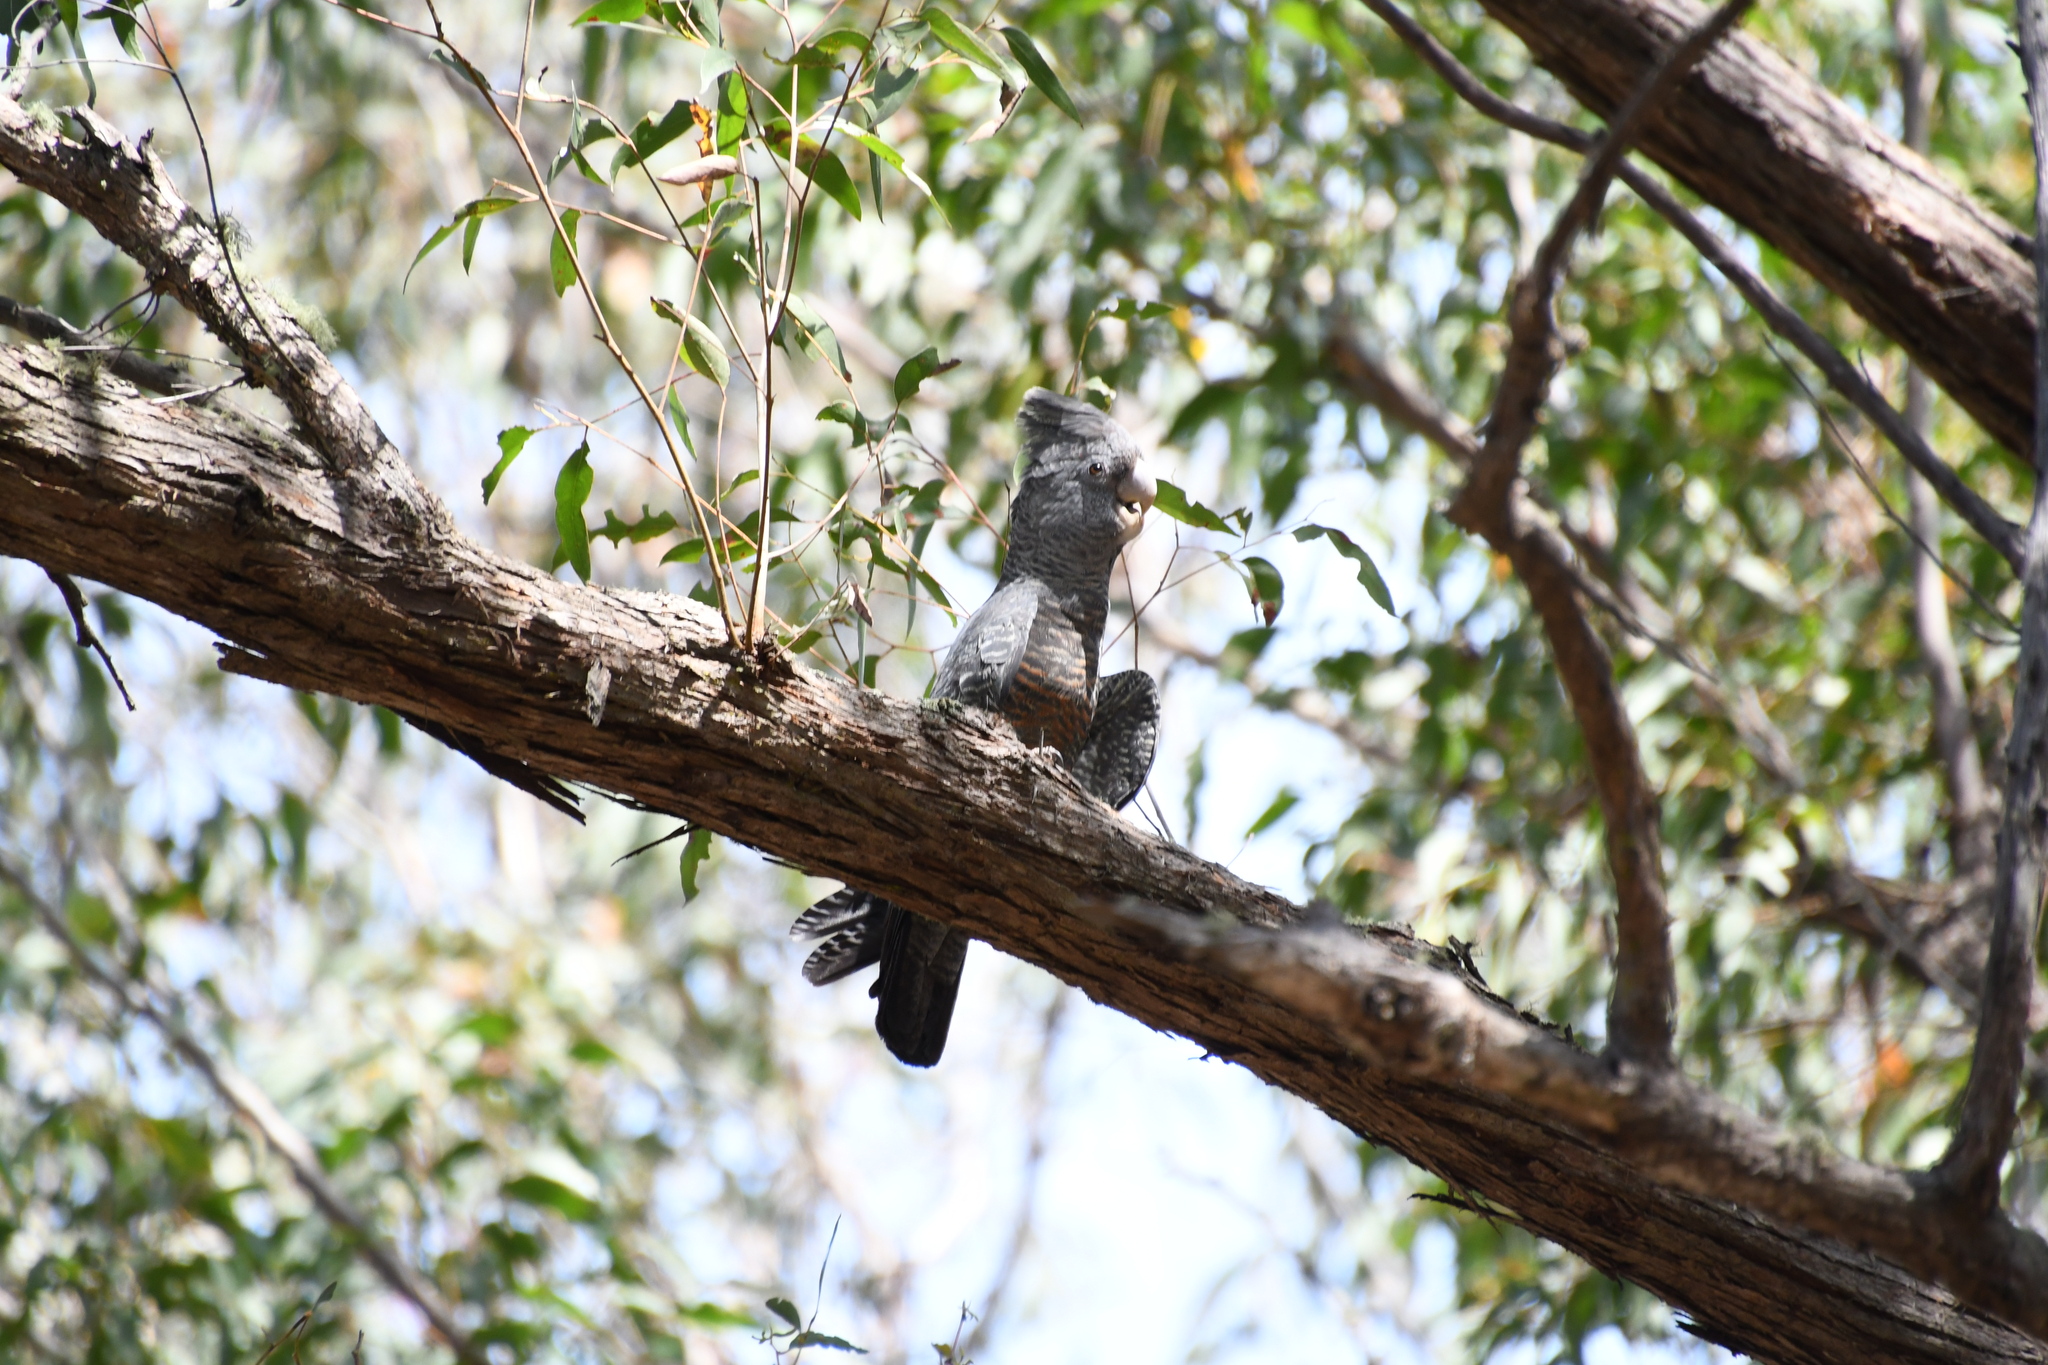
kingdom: Animalia
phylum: Chordata
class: Aves
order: Psittaciformes
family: Psittacidae
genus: Callocephalon
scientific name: Callocephalon fimbriatum
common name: Gang-gang cockatoo
